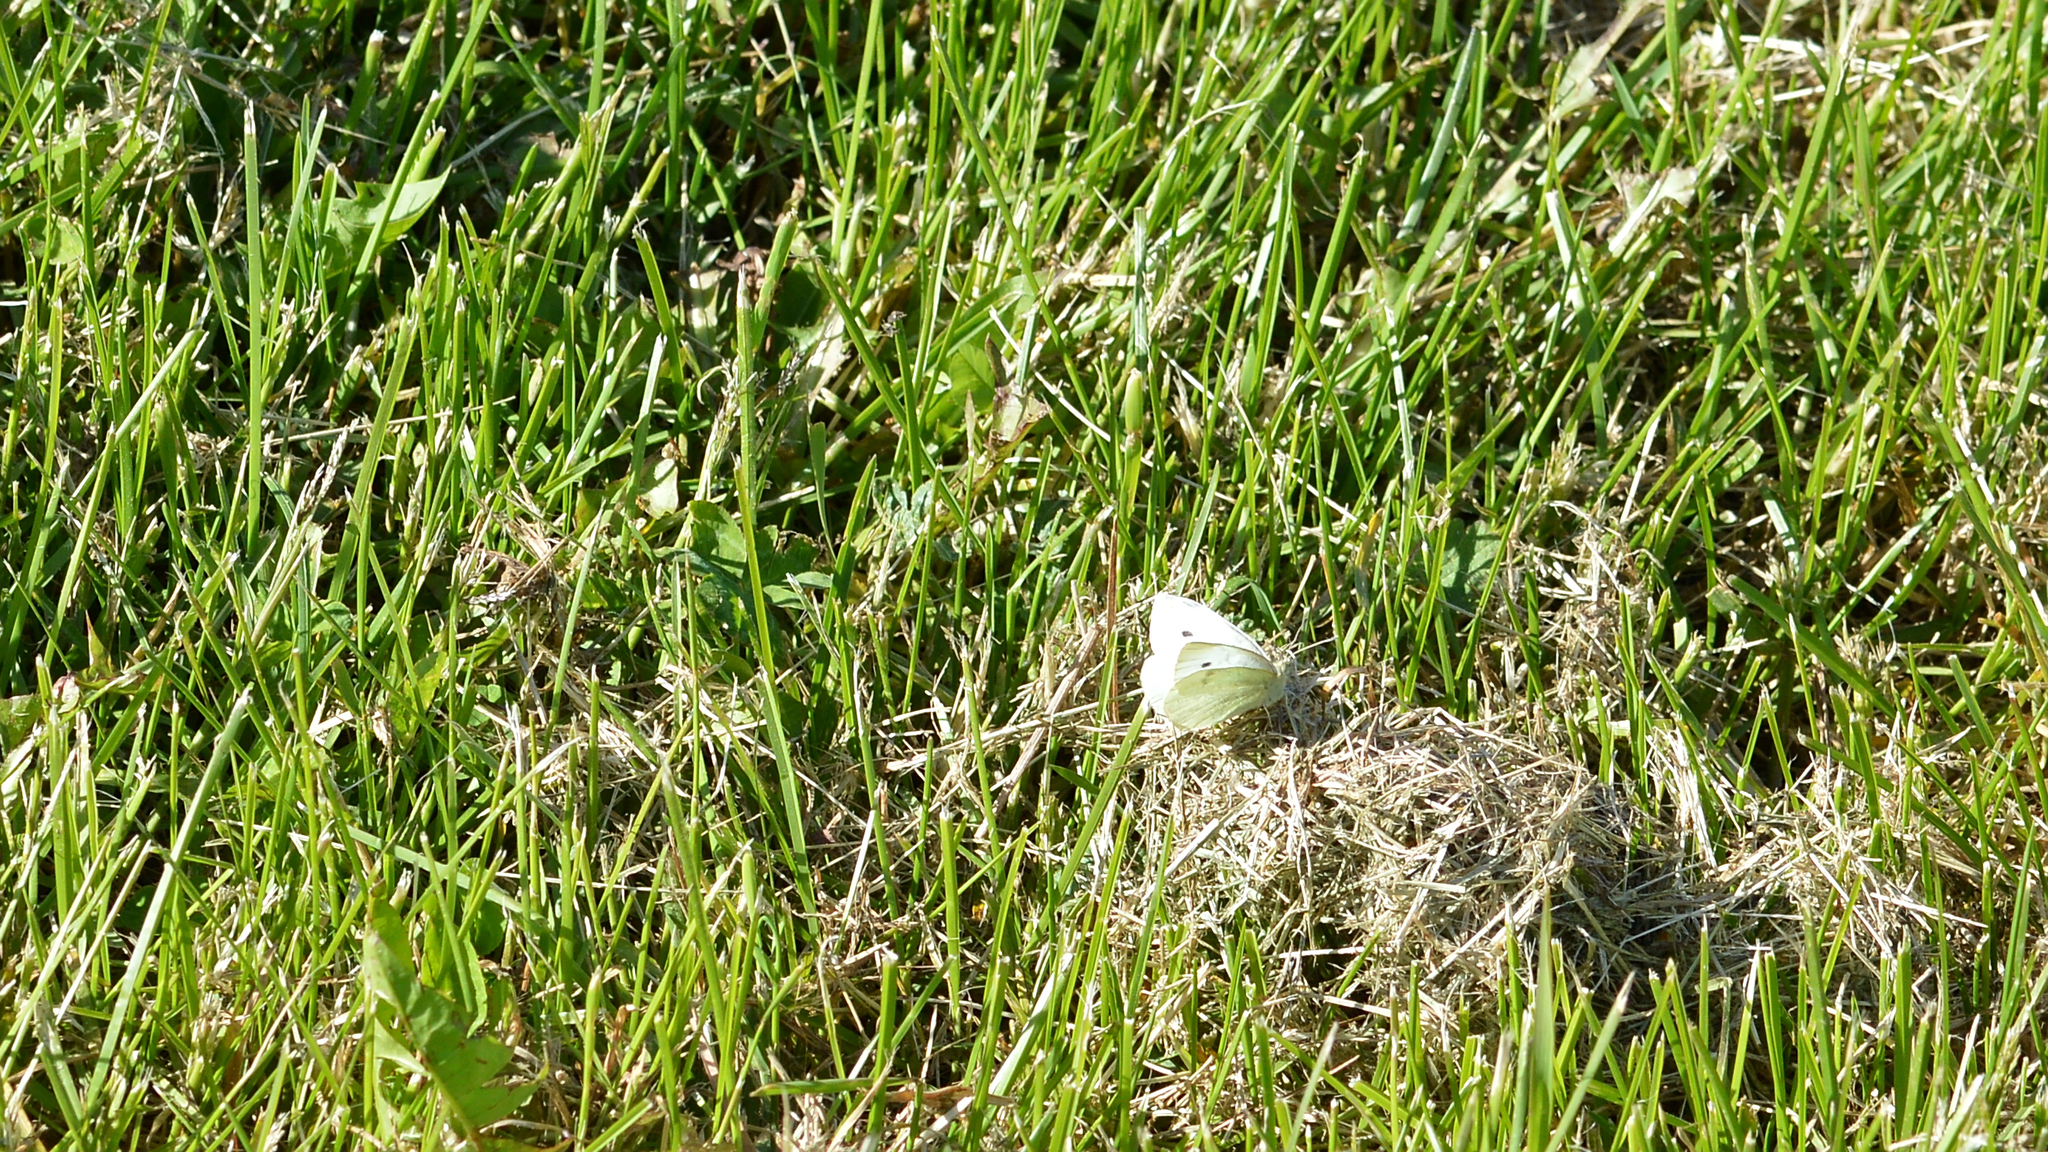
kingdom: Animalia
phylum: Arthropoda
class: Insecta
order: Lepidoptera
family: Pieridae
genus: Pieris
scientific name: Pieris rapae
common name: Small white
